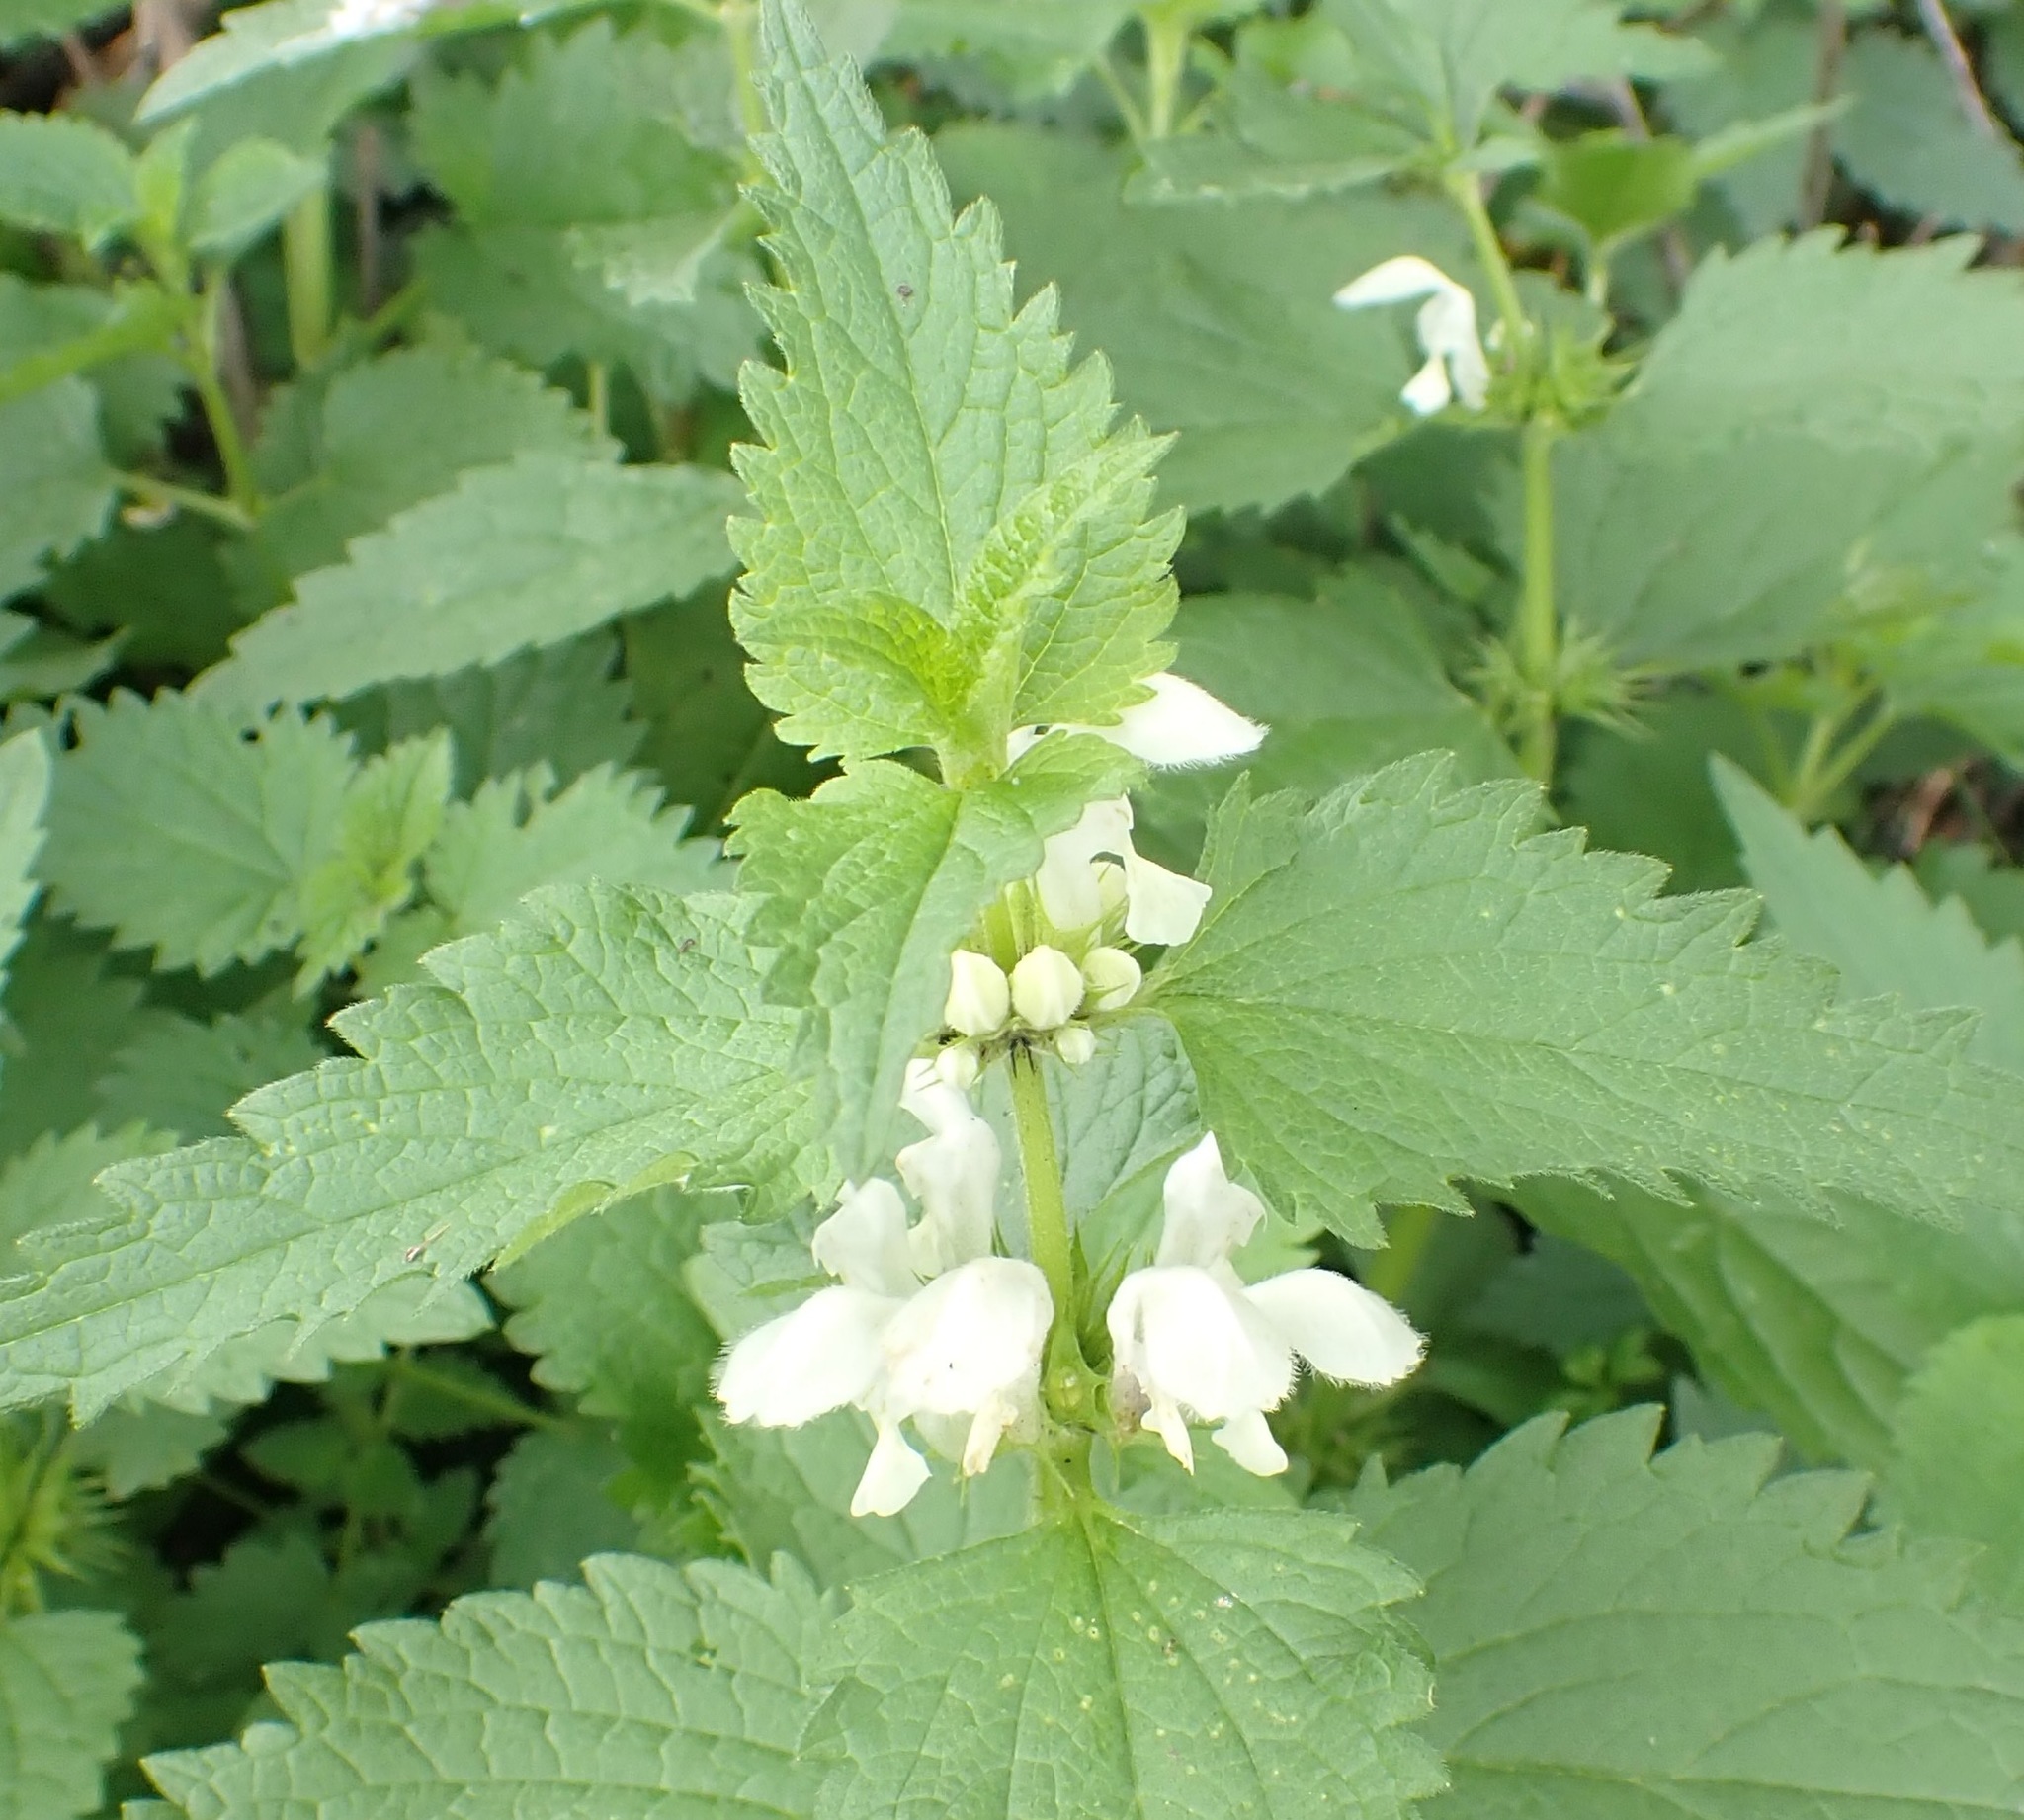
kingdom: Plantae
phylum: Tracheophyta
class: Magnoliopsida
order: Lamiales
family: Lamiaceae
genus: Lamium
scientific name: Lamium album
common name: White dead-nettle
